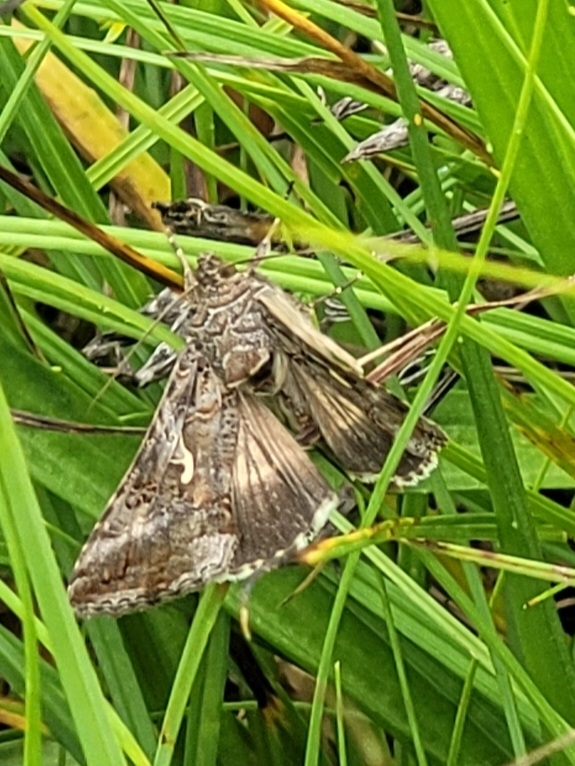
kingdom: Animalia
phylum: Arthropoda
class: Insecta
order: Lepidoptera
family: Noctuidae
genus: Autographa
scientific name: Autographa gamma
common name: Silver y
